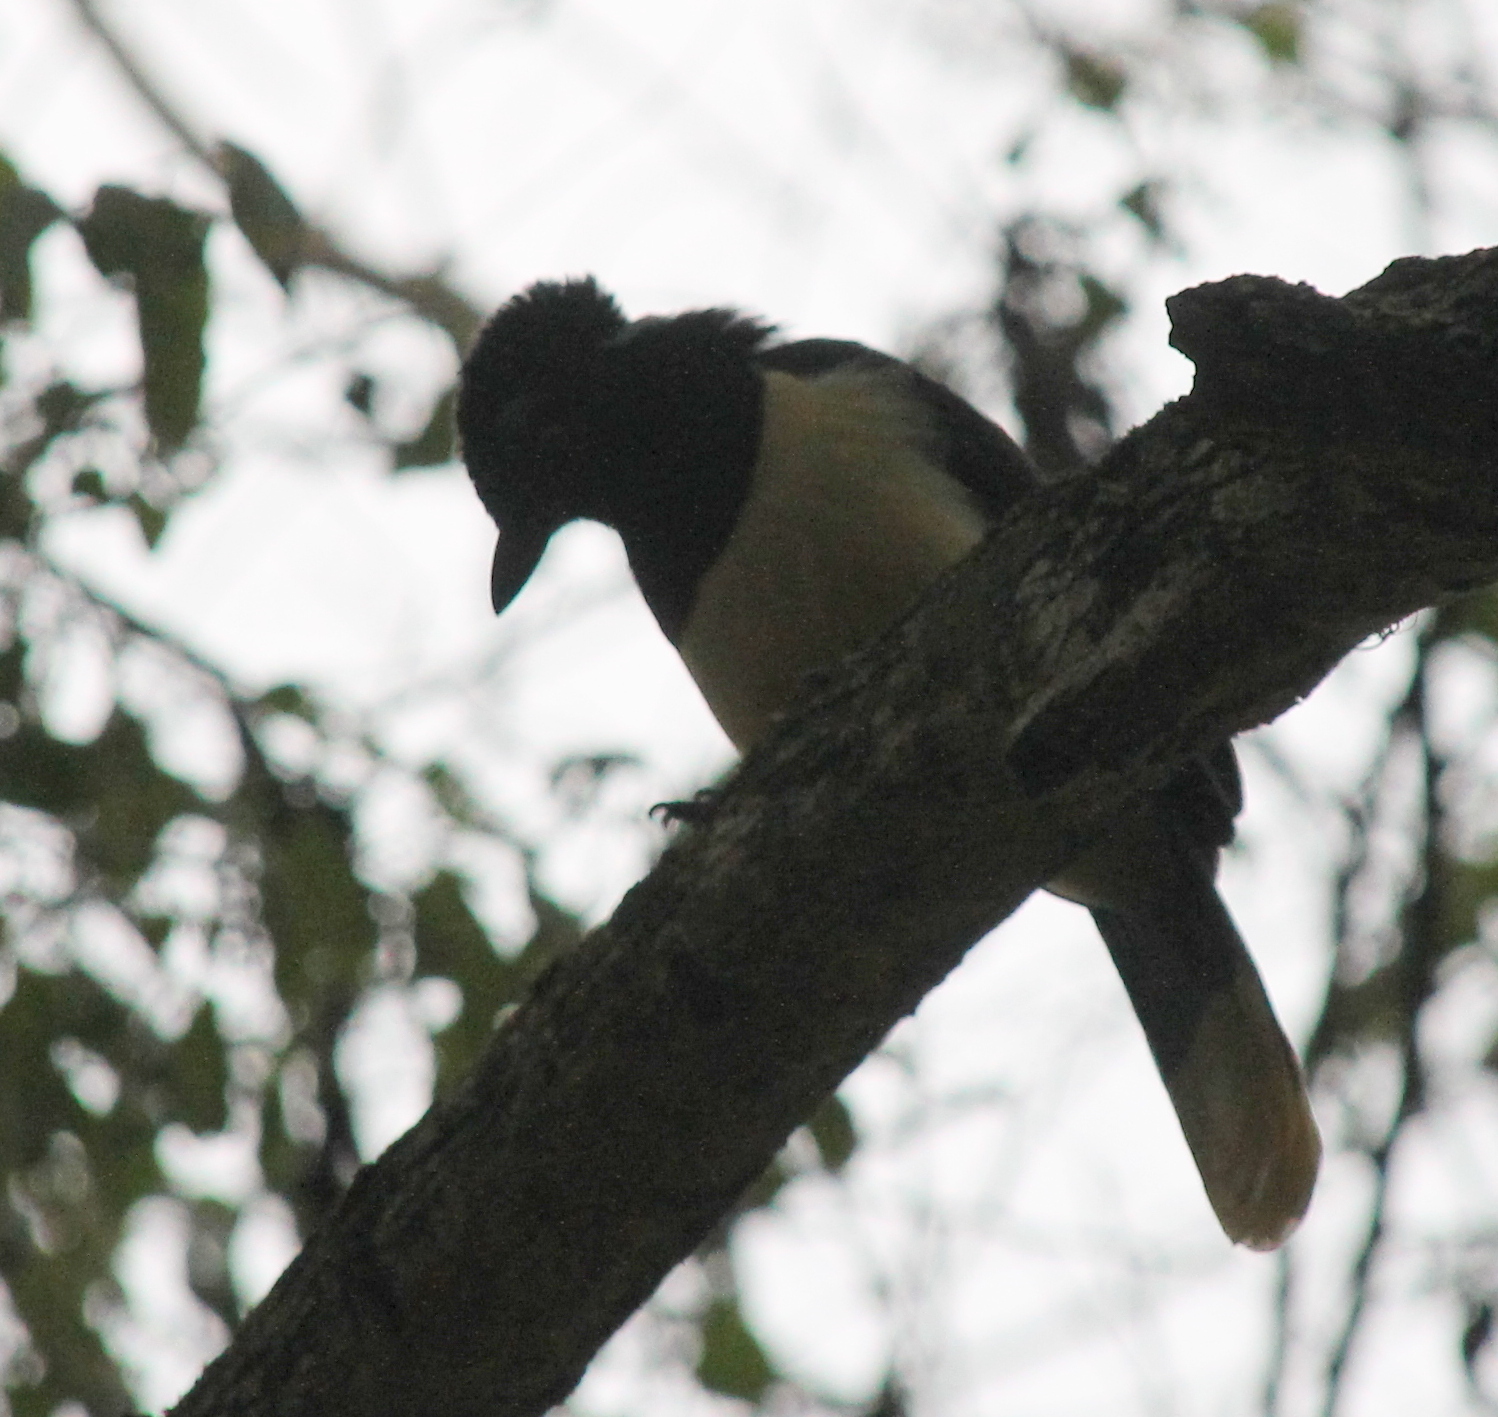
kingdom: Animalia
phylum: Chordata
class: Aves
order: Passeriformes
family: Corvidae
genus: Cyanocorax
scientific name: Cyanocorax chrysops
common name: Plush-crested jay
